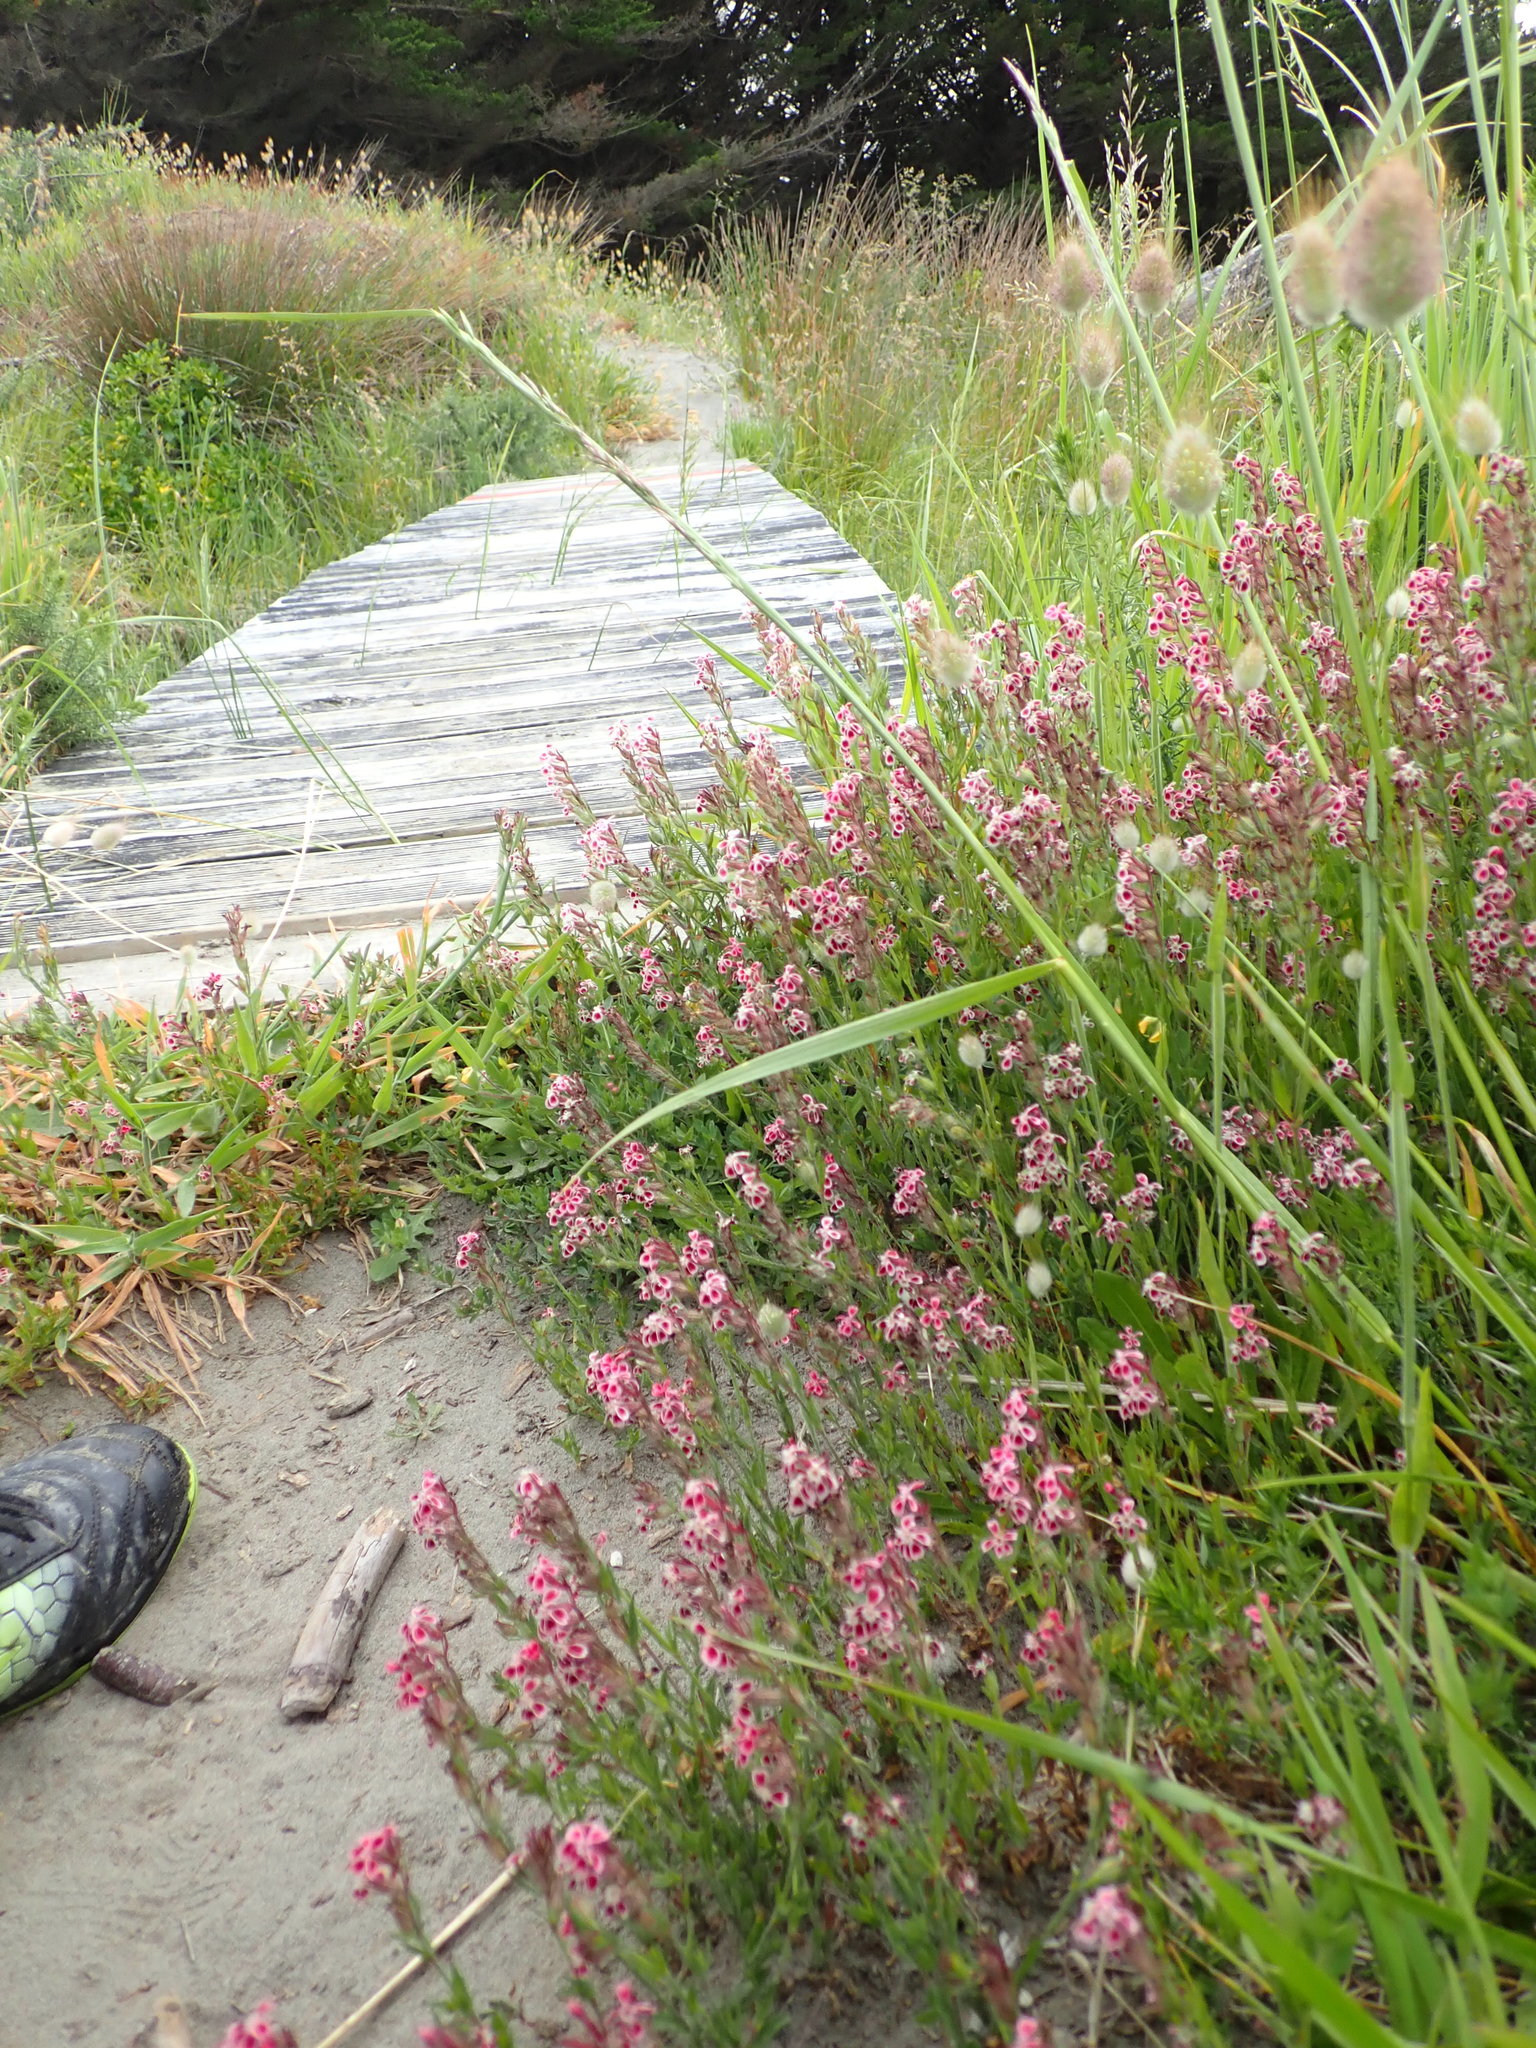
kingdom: Plantae
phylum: Tracheophyta
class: Magnoliopsida
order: Caryophyllales
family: Caryophyllaceae
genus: Silene
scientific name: Silene gallica
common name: Small-flowered catchfly
